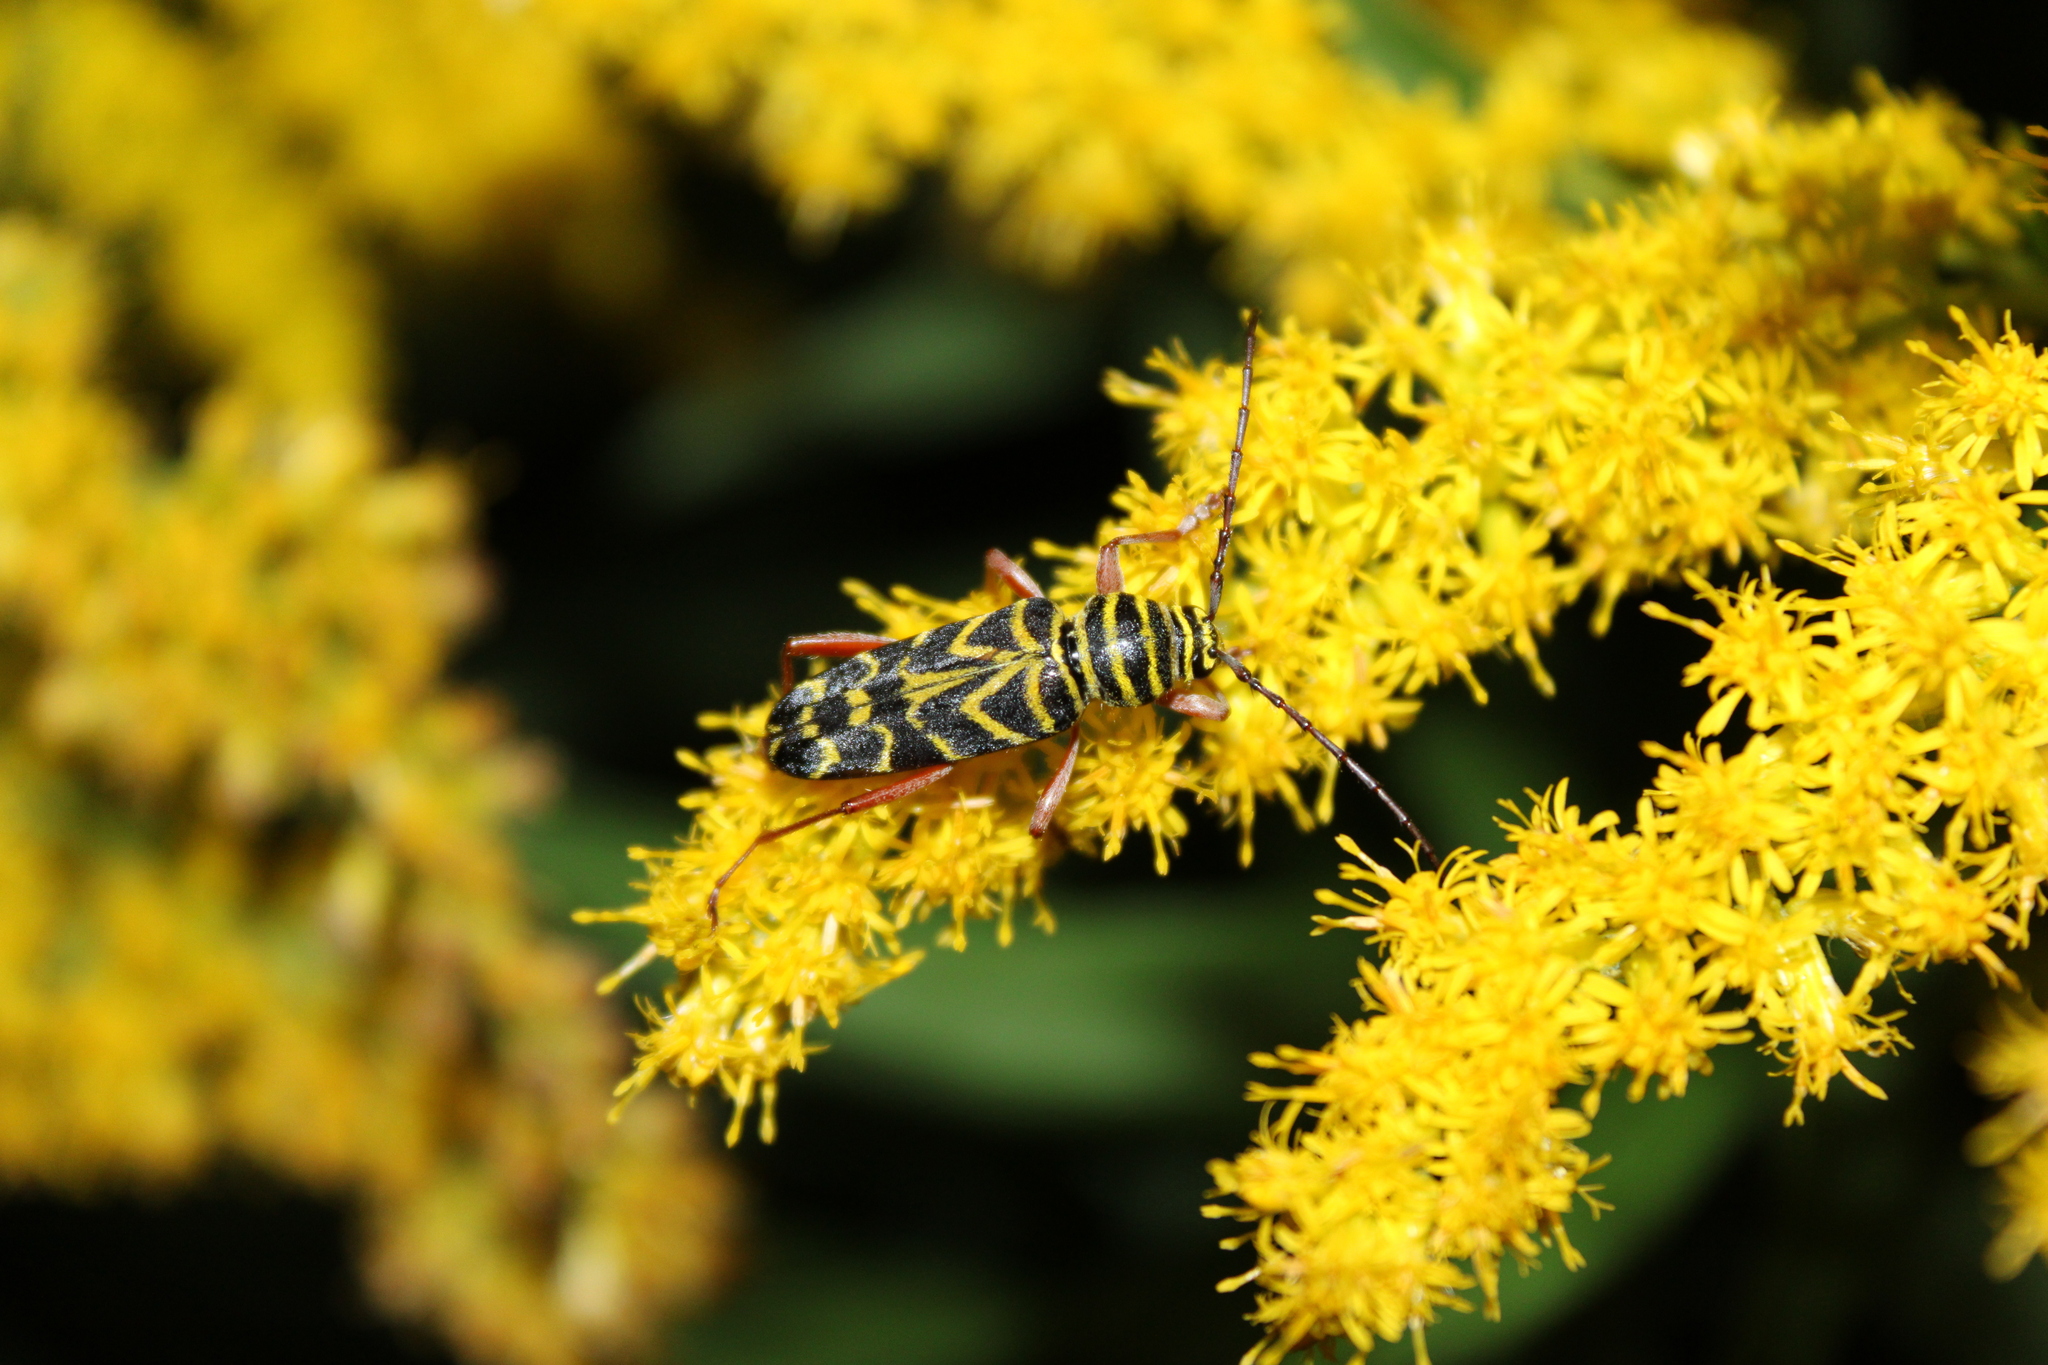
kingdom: Animalia
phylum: Arthropoda
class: Insecta
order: Coleoptera
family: Cerambycidae
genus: Megacyllene
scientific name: Megacyllene robiniae
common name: Locust borer
